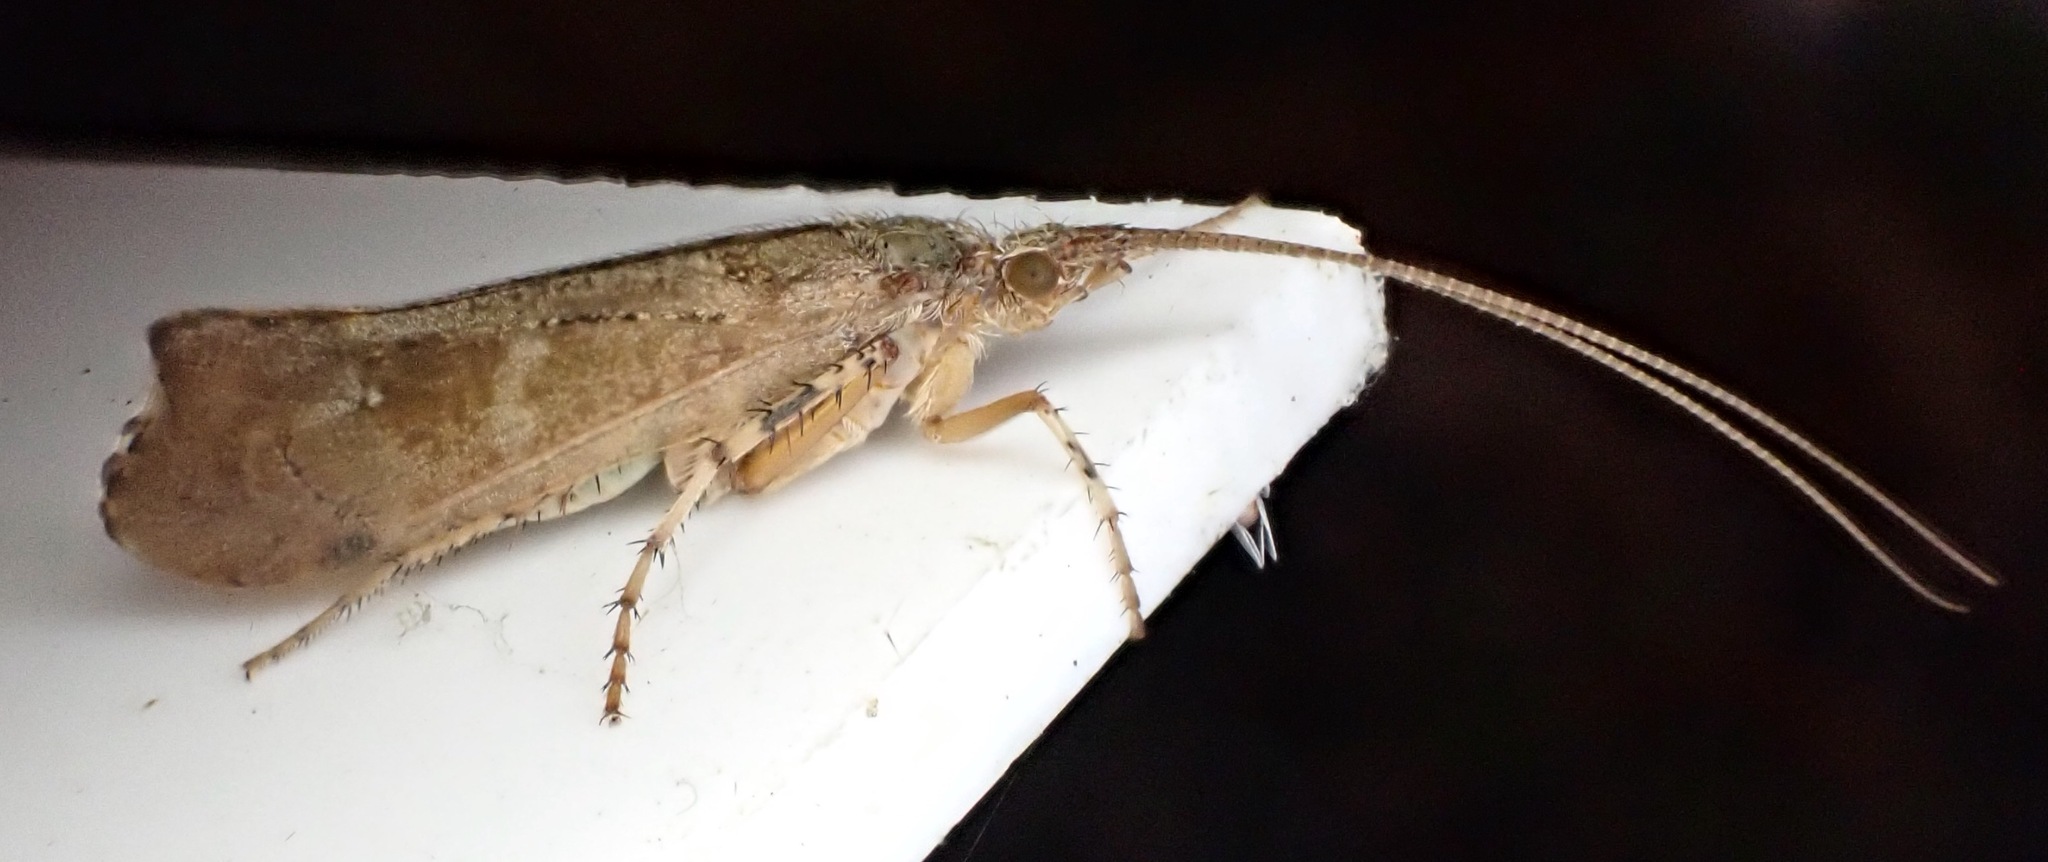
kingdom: Animalia
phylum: Arthropoda
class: Insecta
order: Trichoptera
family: Limnephilidae
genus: Glyphotaelius
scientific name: Glyphotaelius pellucidus
